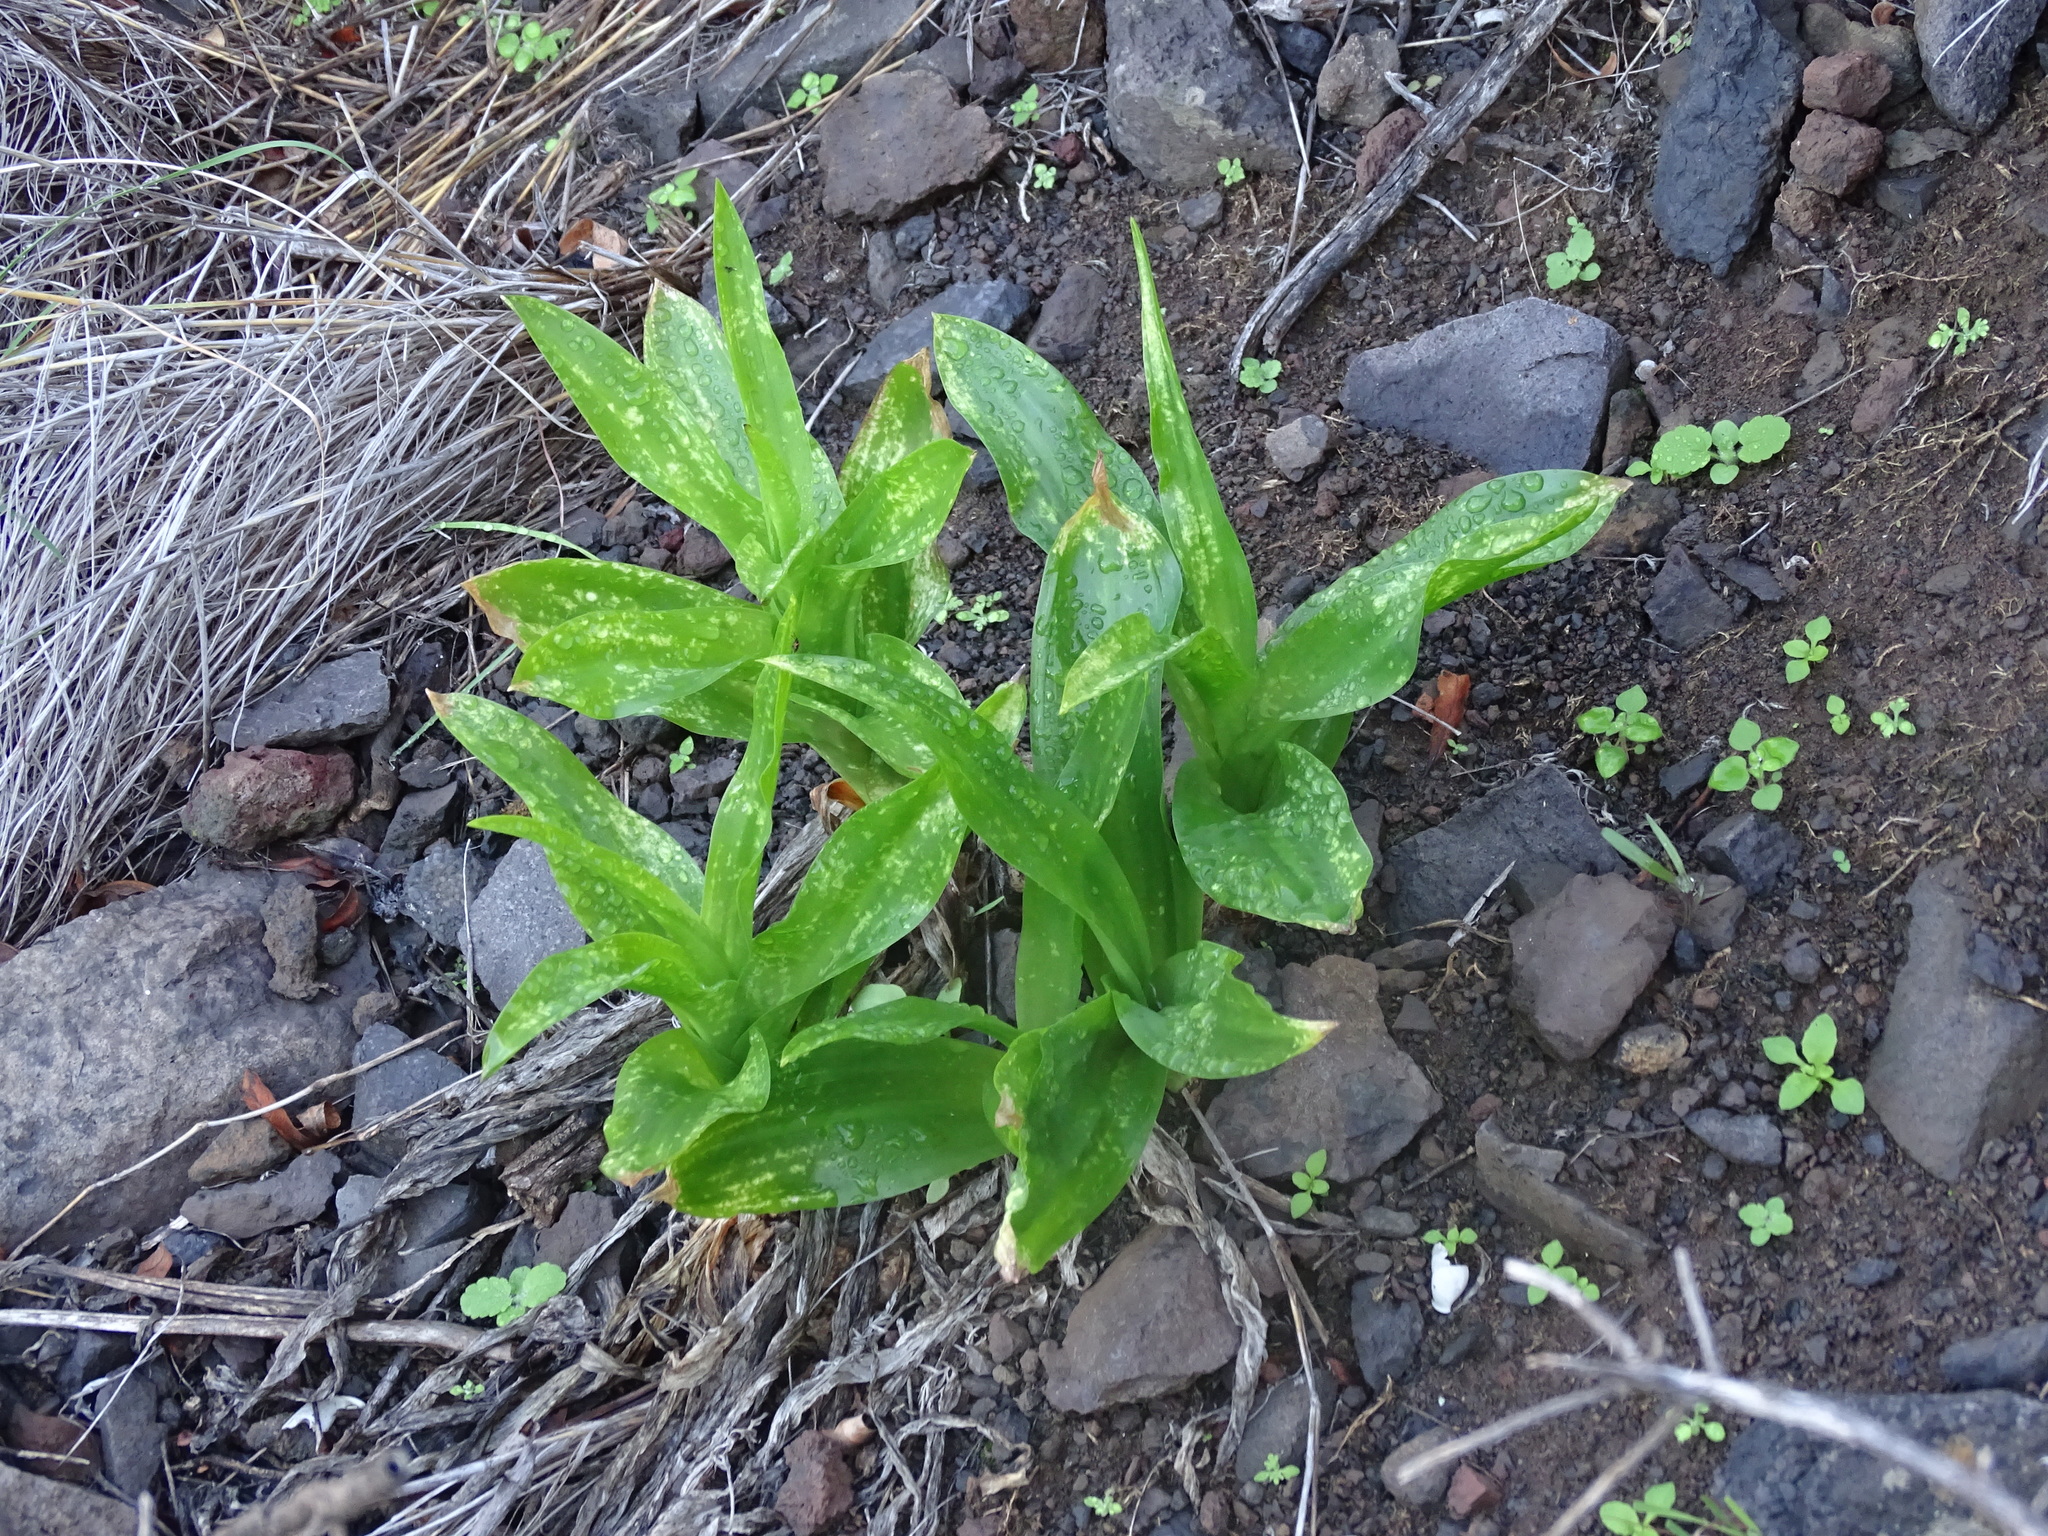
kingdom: Plantae
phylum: Tracheophyta
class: Liliopsida
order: Asparagales
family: Asparagaceae
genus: Drimia
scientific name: Drimia hesperia
